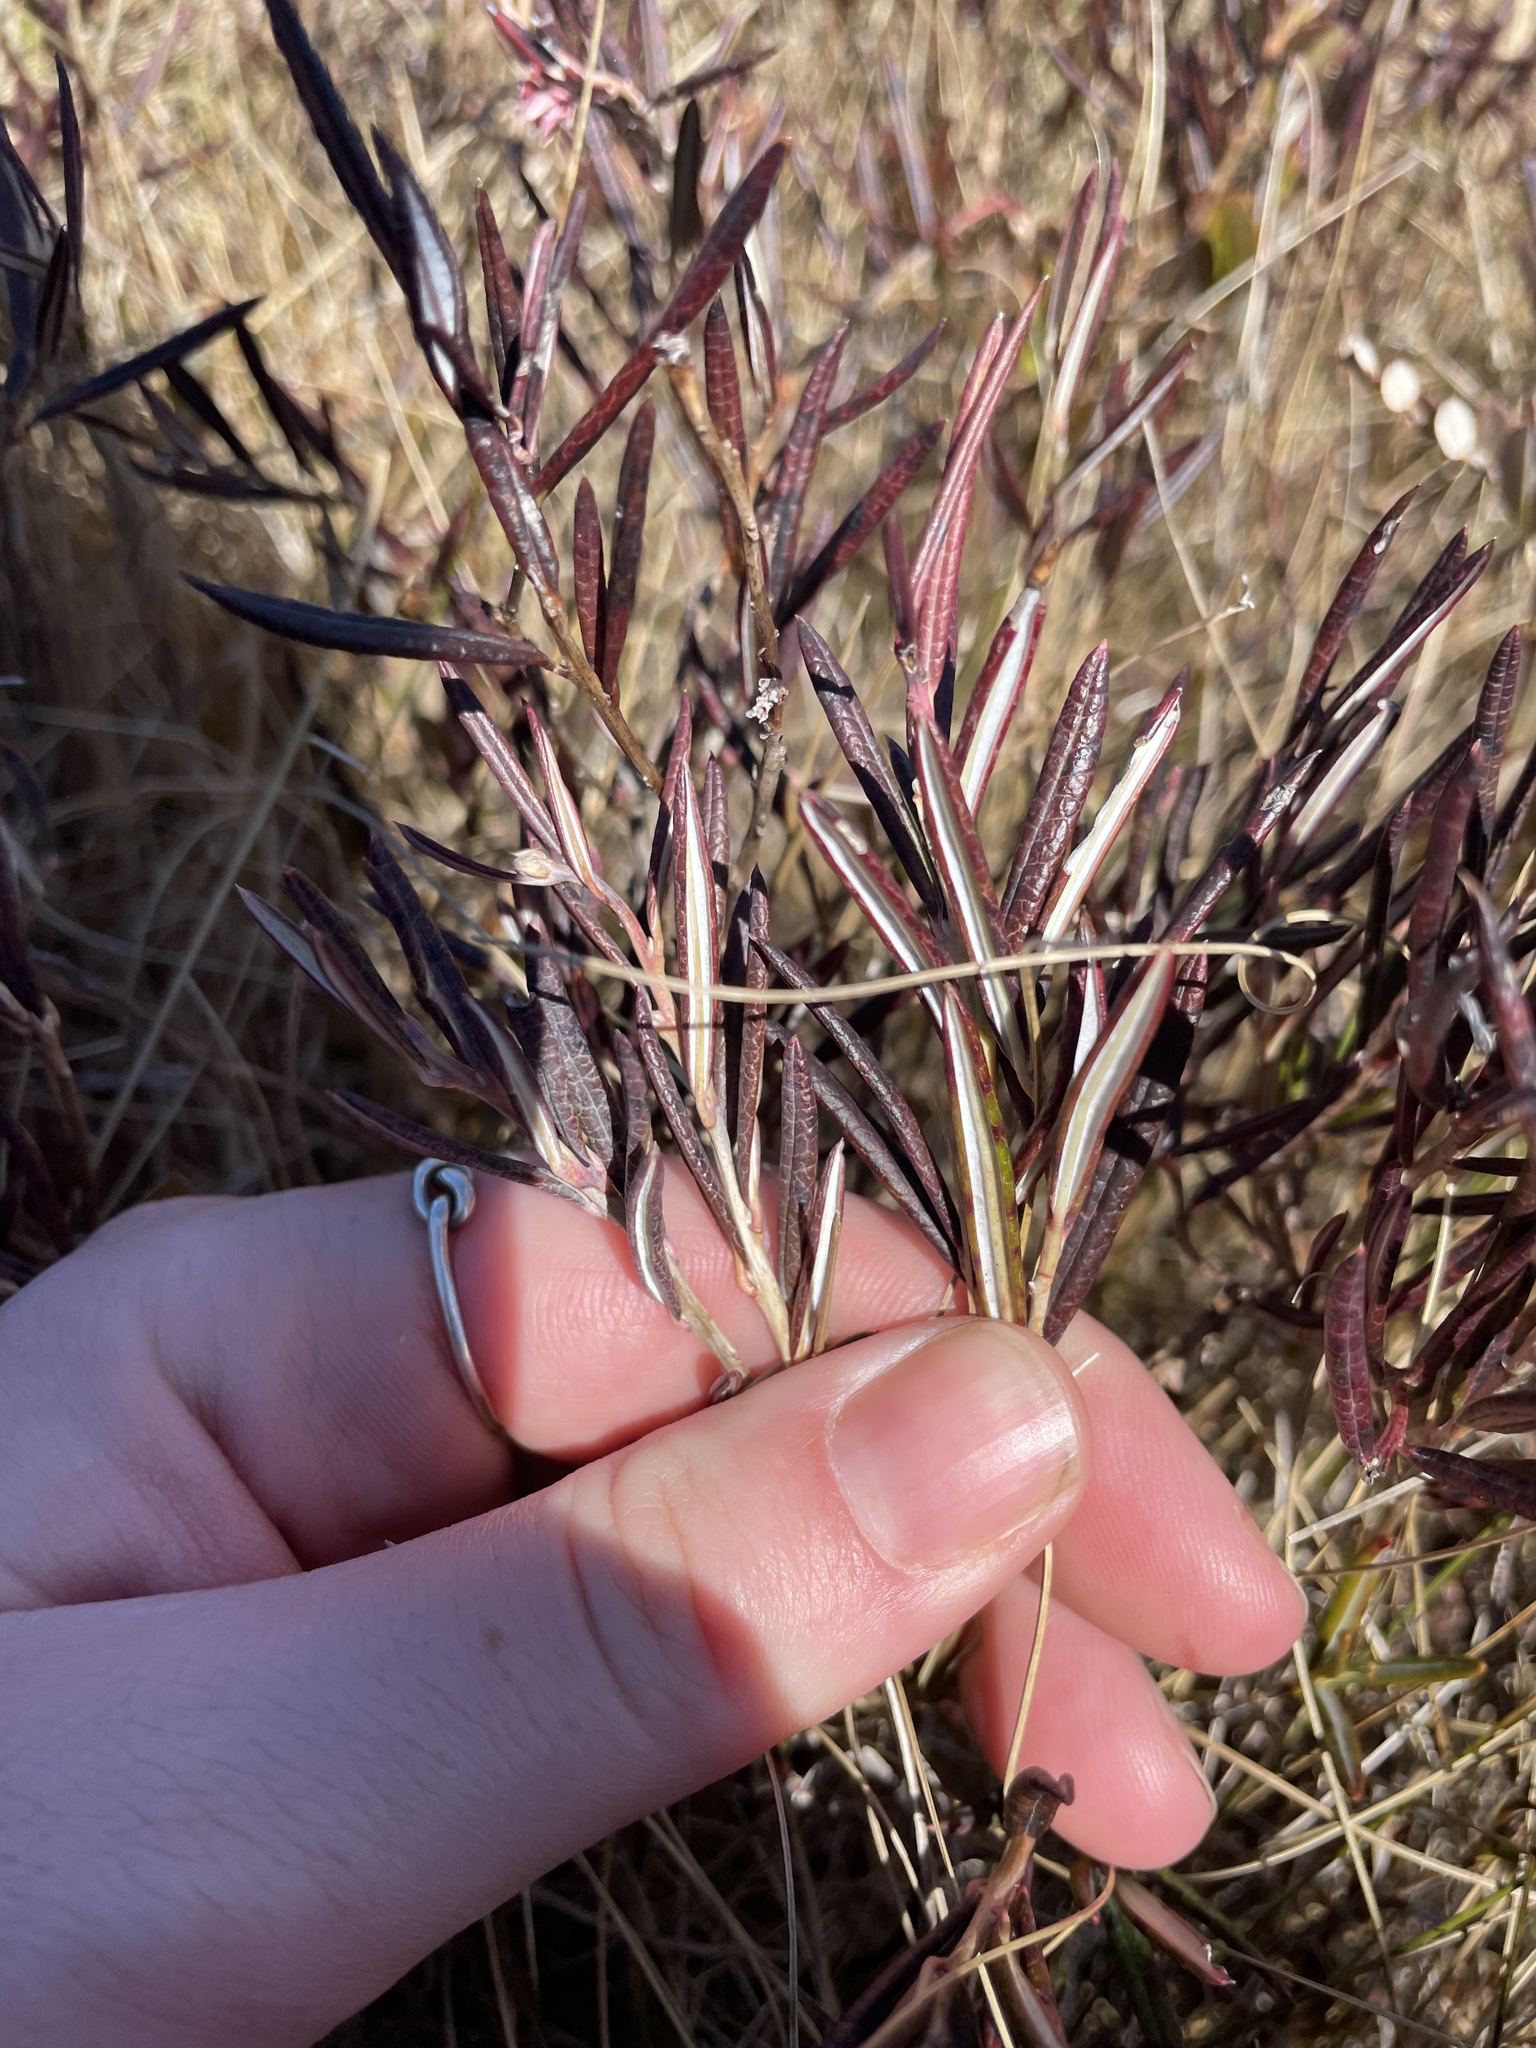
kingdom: Plantae
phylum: Tracheophyta
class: Magnoliopsida
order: Ericales
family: Ericaceae
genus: Andromeda
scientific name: Andromeda polifolia
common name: Bog-rosemary
